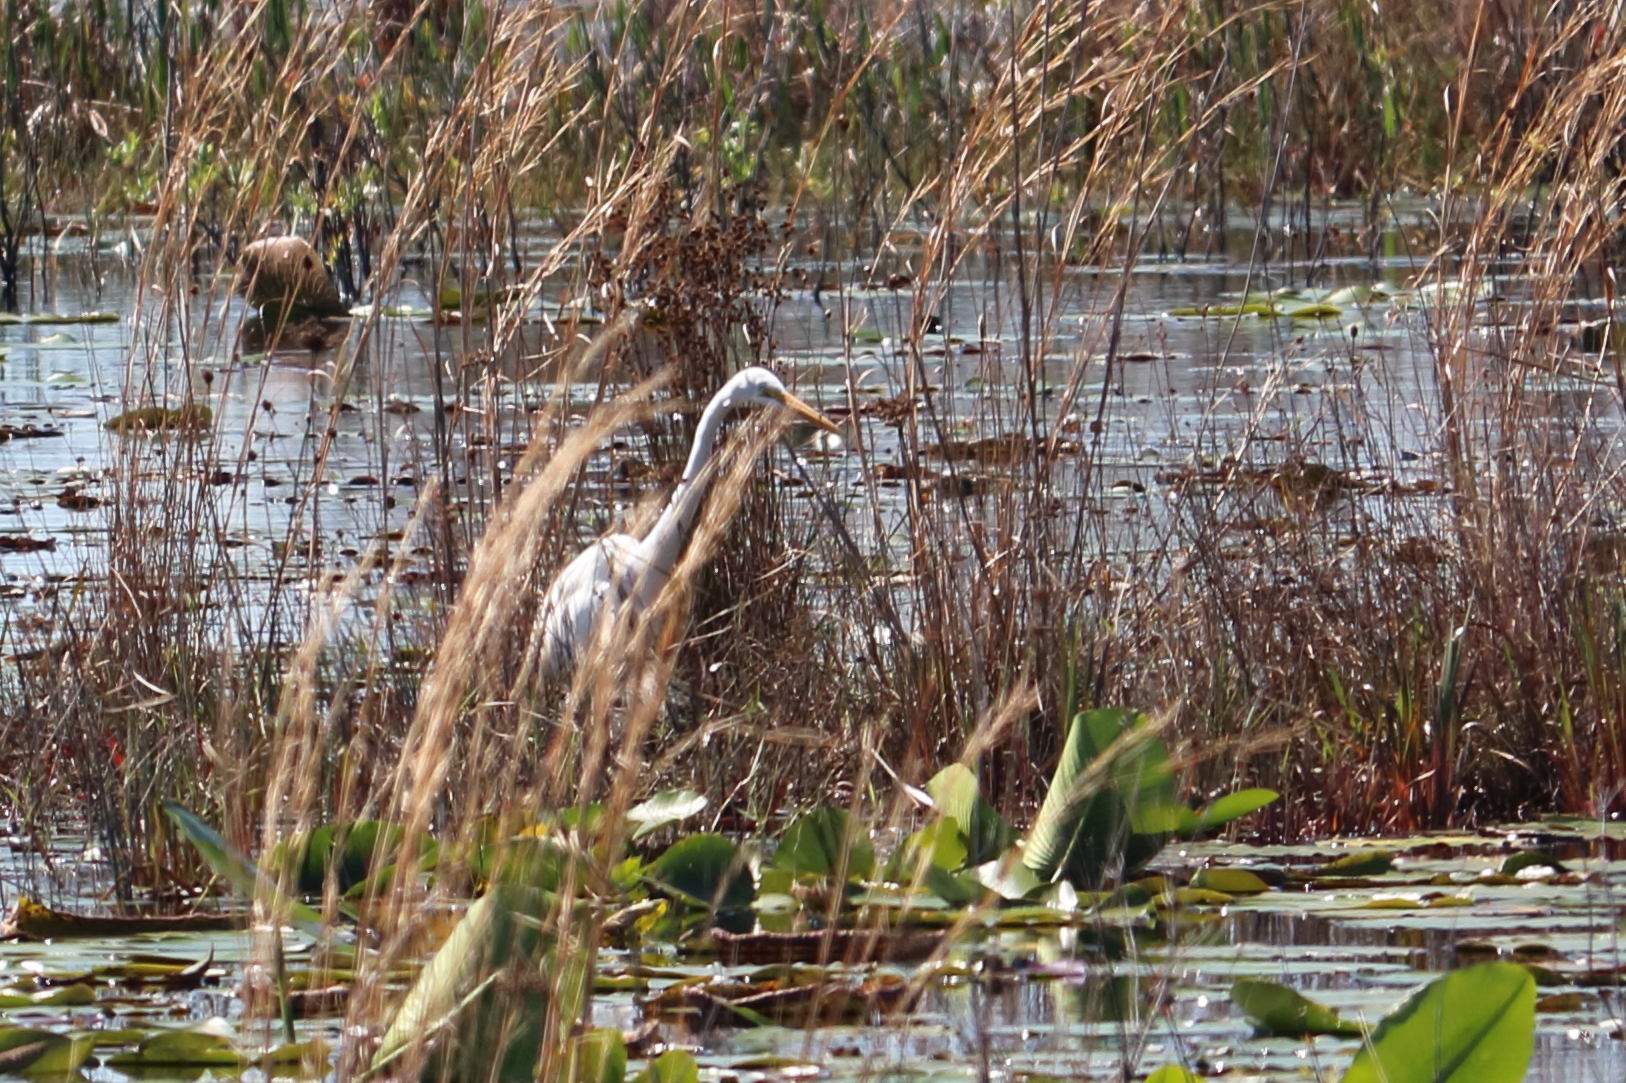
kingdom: Animalia
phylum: Chordata
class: Aves
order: Pelecaniformes
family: Ardeidae
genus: Ardea
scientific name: Ardea alba
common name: Great egret
